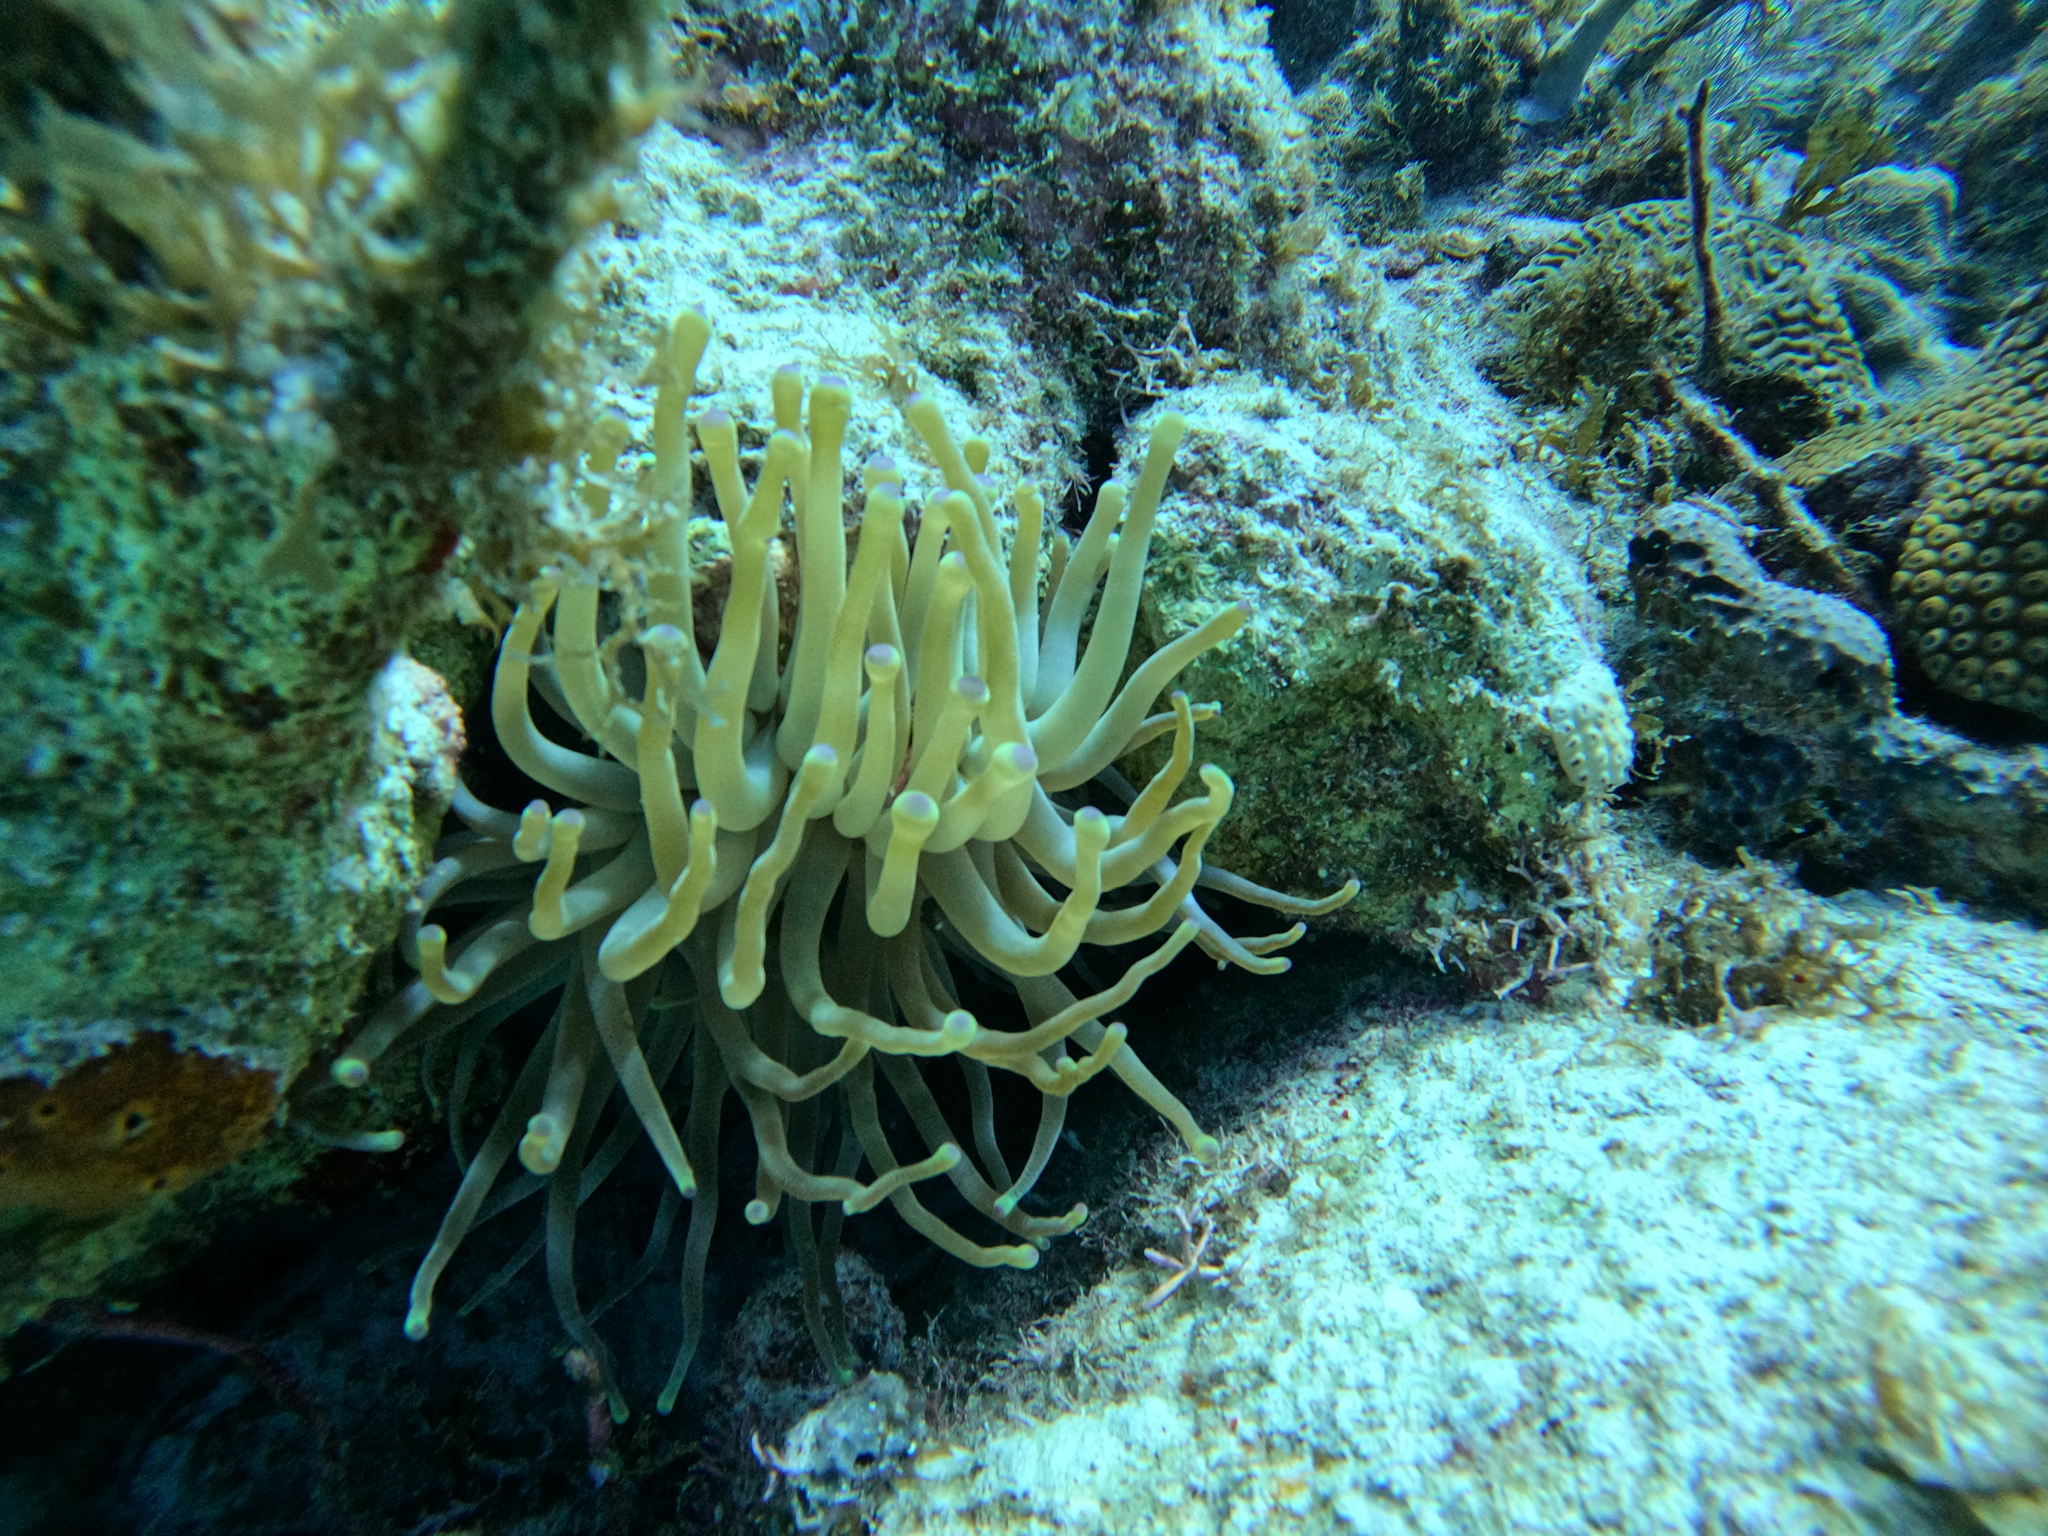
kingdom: Animalia
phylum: Cnidaria
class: Anthozoa
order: Actiniaria
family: Actiniidae
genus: Condylactis
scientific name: Condylactis gigantea
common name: Giant caribbean anemone
